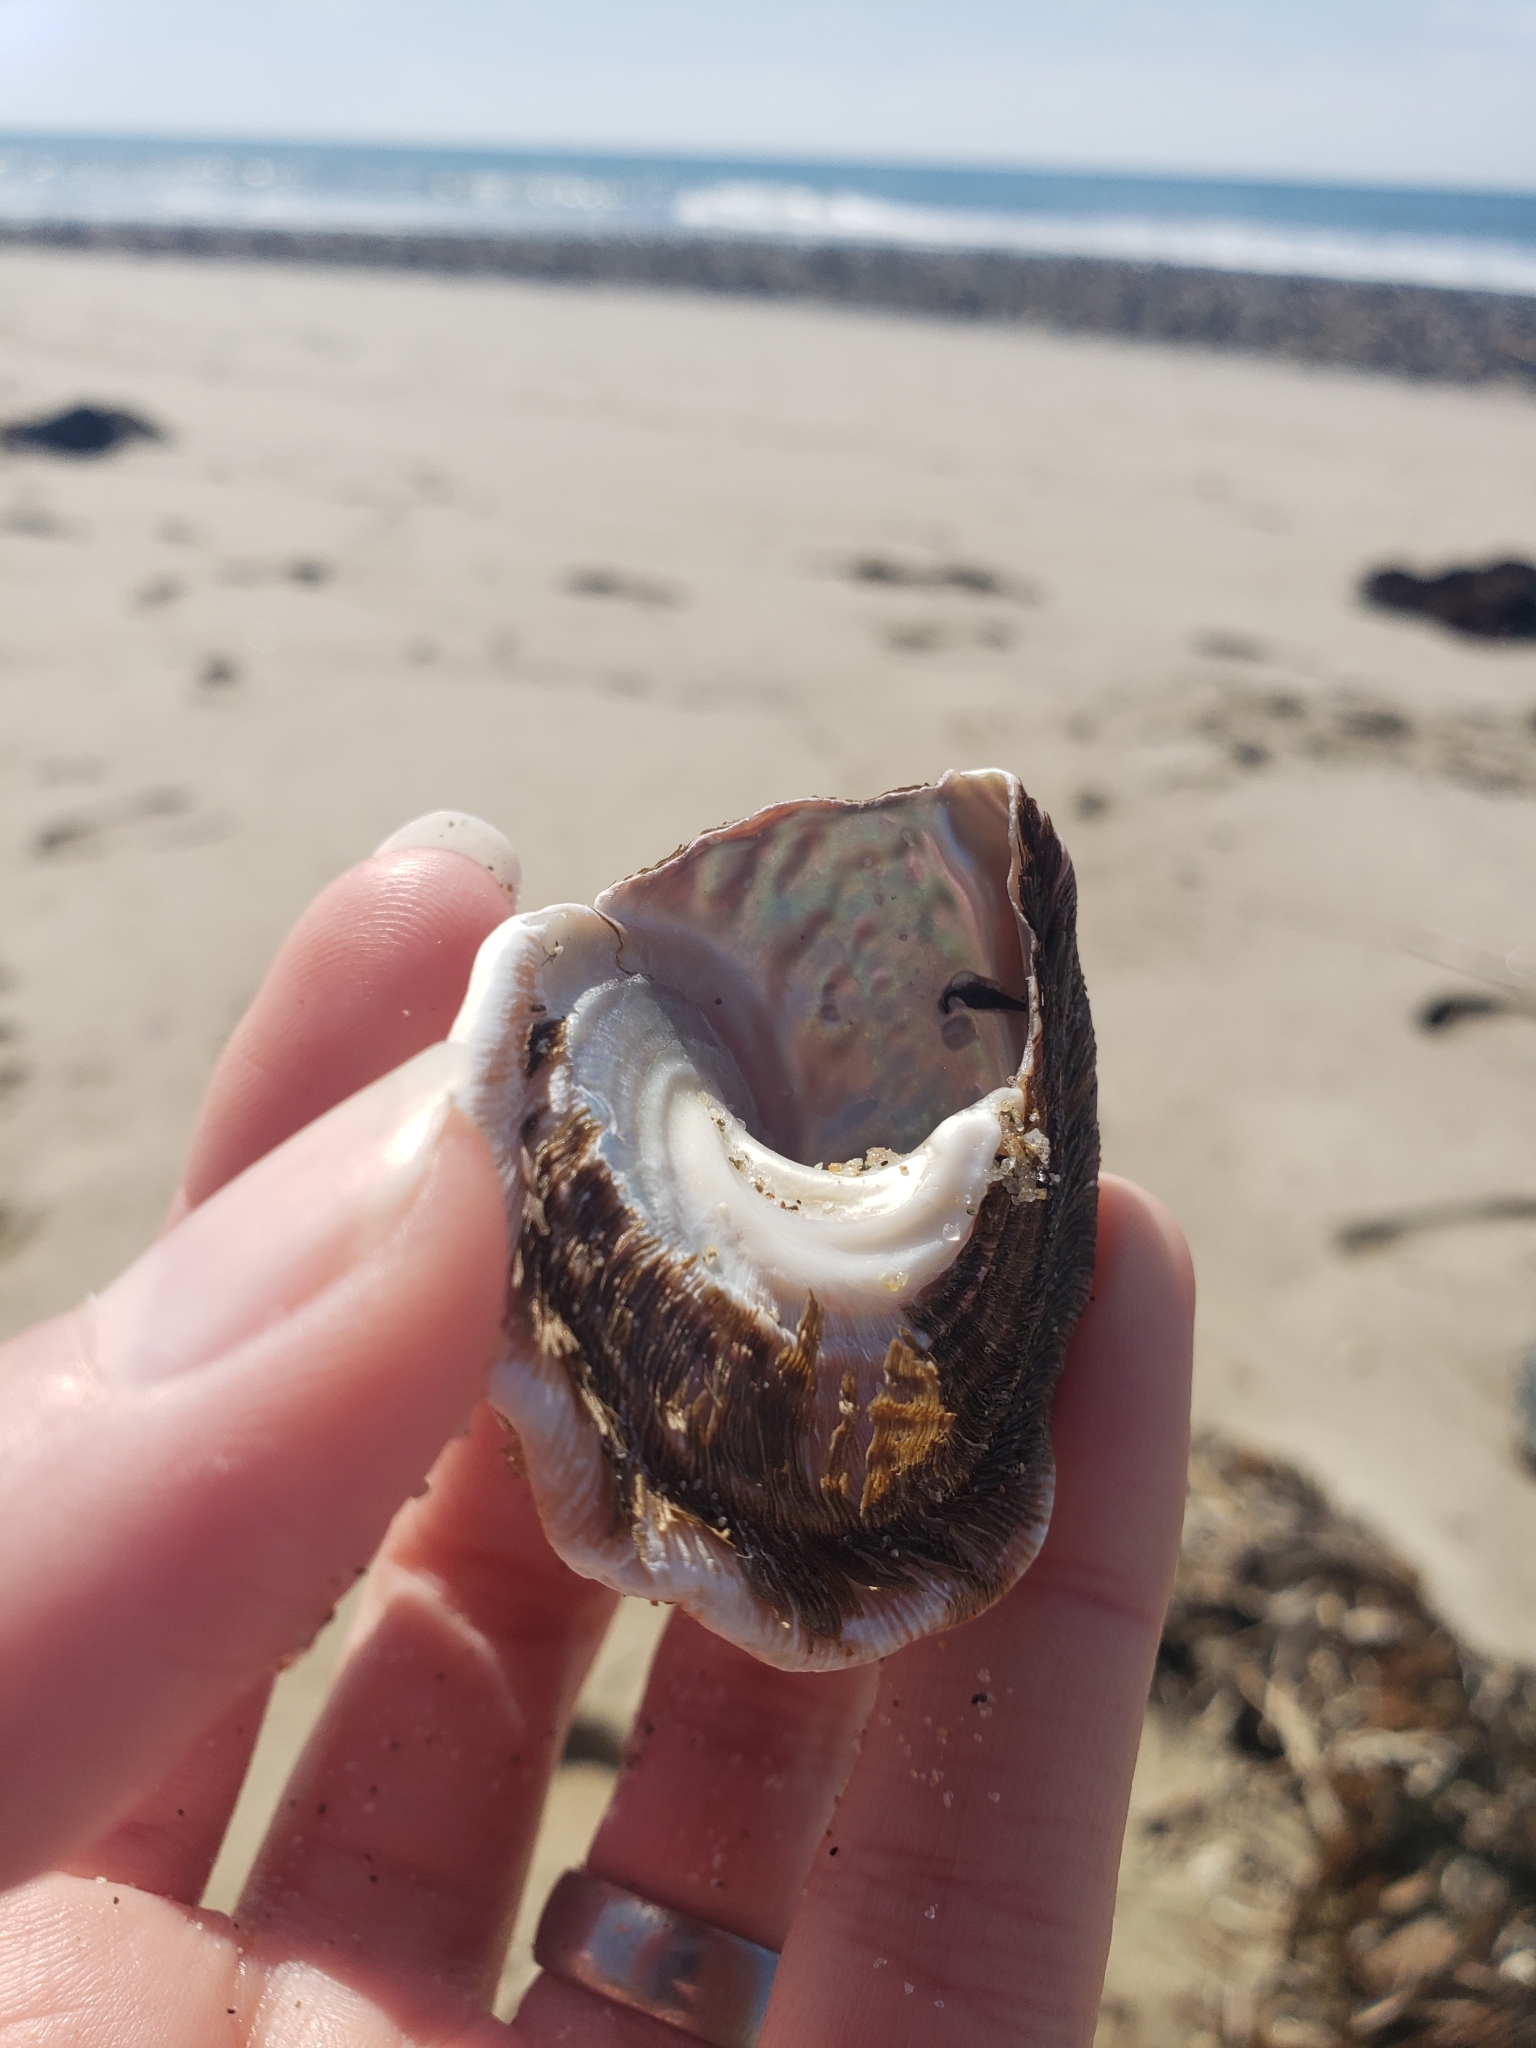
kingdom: Animalia
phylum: Mollusca
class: Gastropoda
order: Trochida
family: Turbinidae
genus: Megastraea
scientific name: Megastraea undosa
